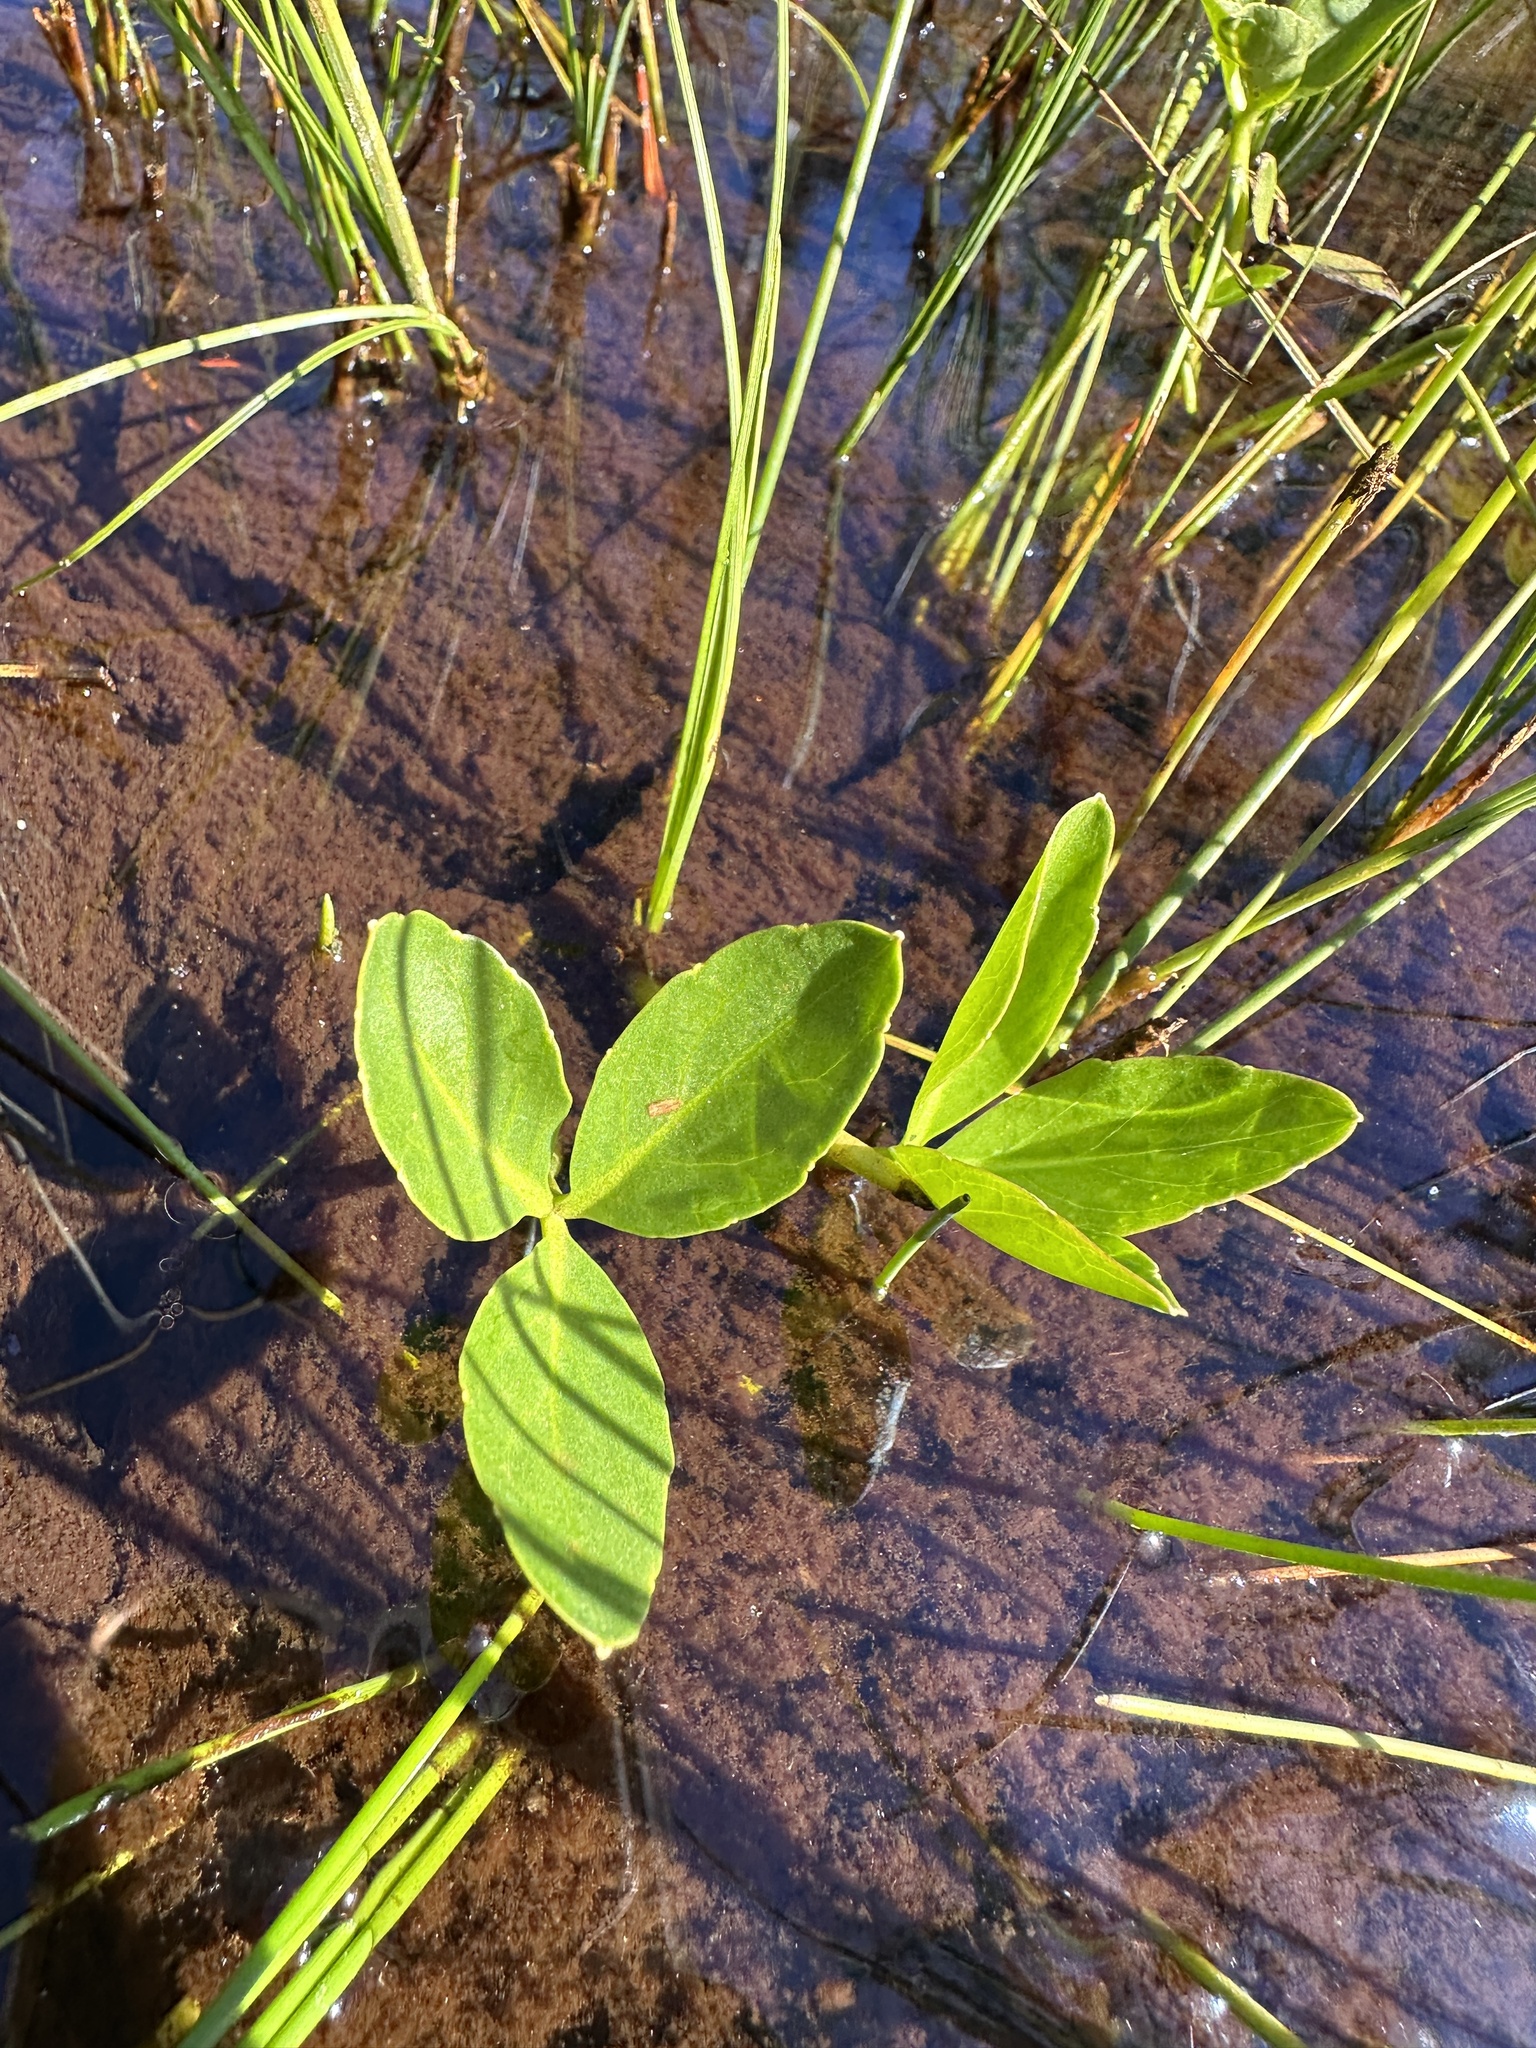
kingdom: Plantae
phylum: Tracheophyta
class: Magnoliopsida
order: Asterales
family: Menyanthaceae
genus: Menyanthes
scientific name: Menyanthes trifoliata
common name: Bogbean
